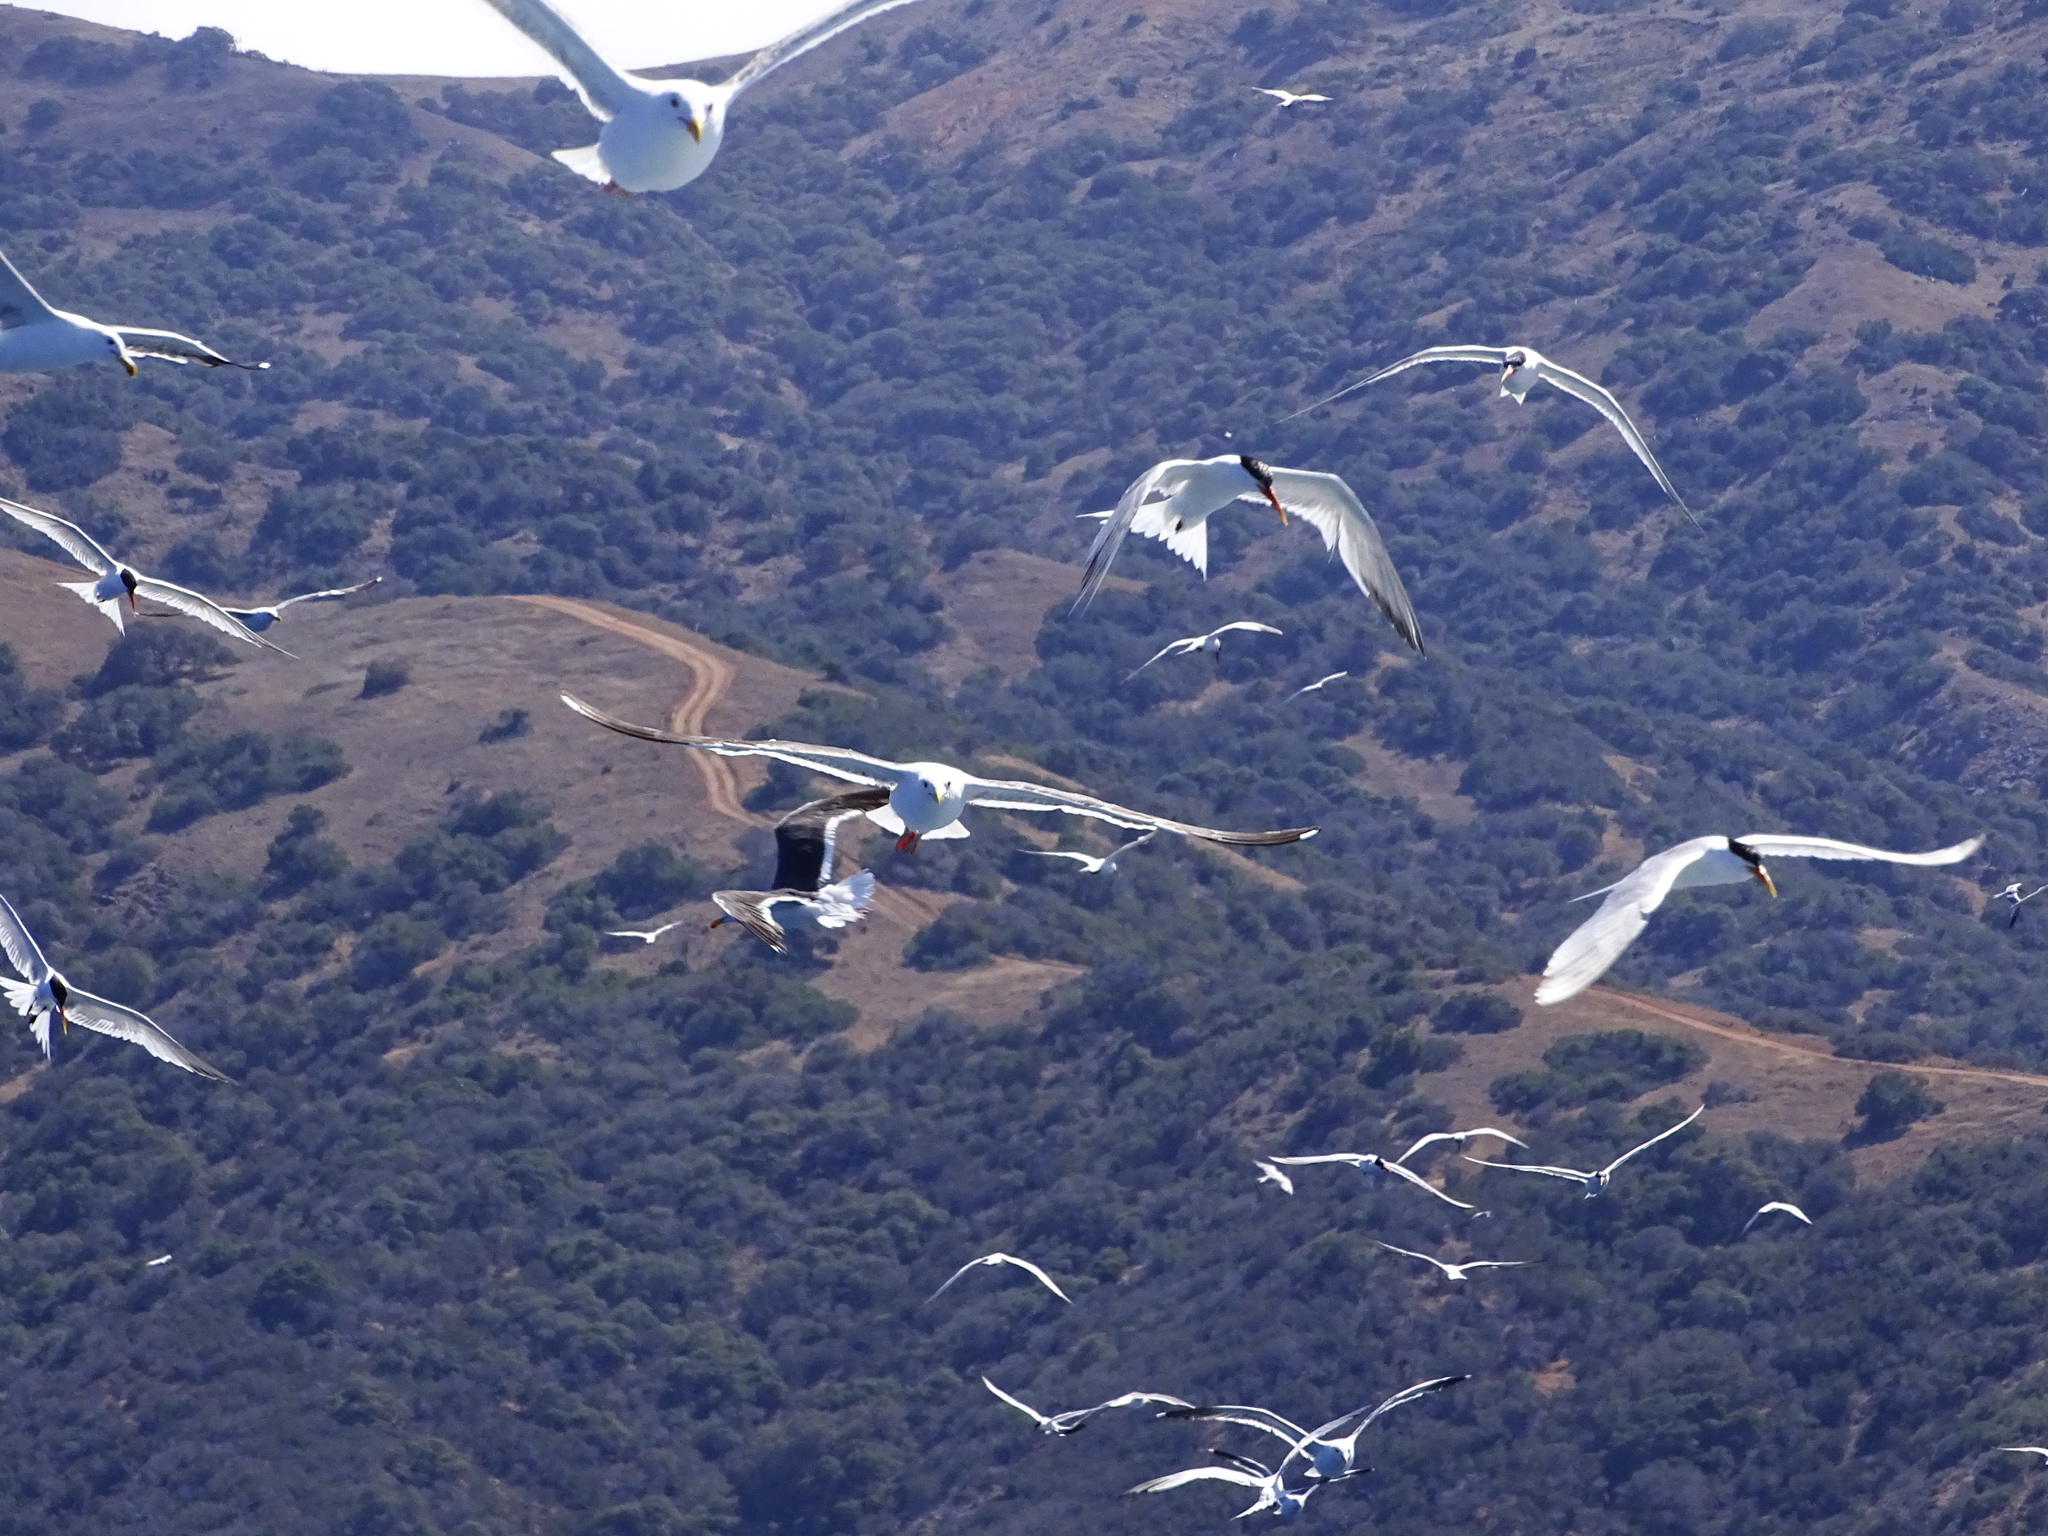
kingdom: Animalia
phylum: Chordata
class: Aves
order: Charadriiformes
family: Laridae
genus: Thalasseus
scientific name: Thalasseus elegans
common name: Elegant tern
